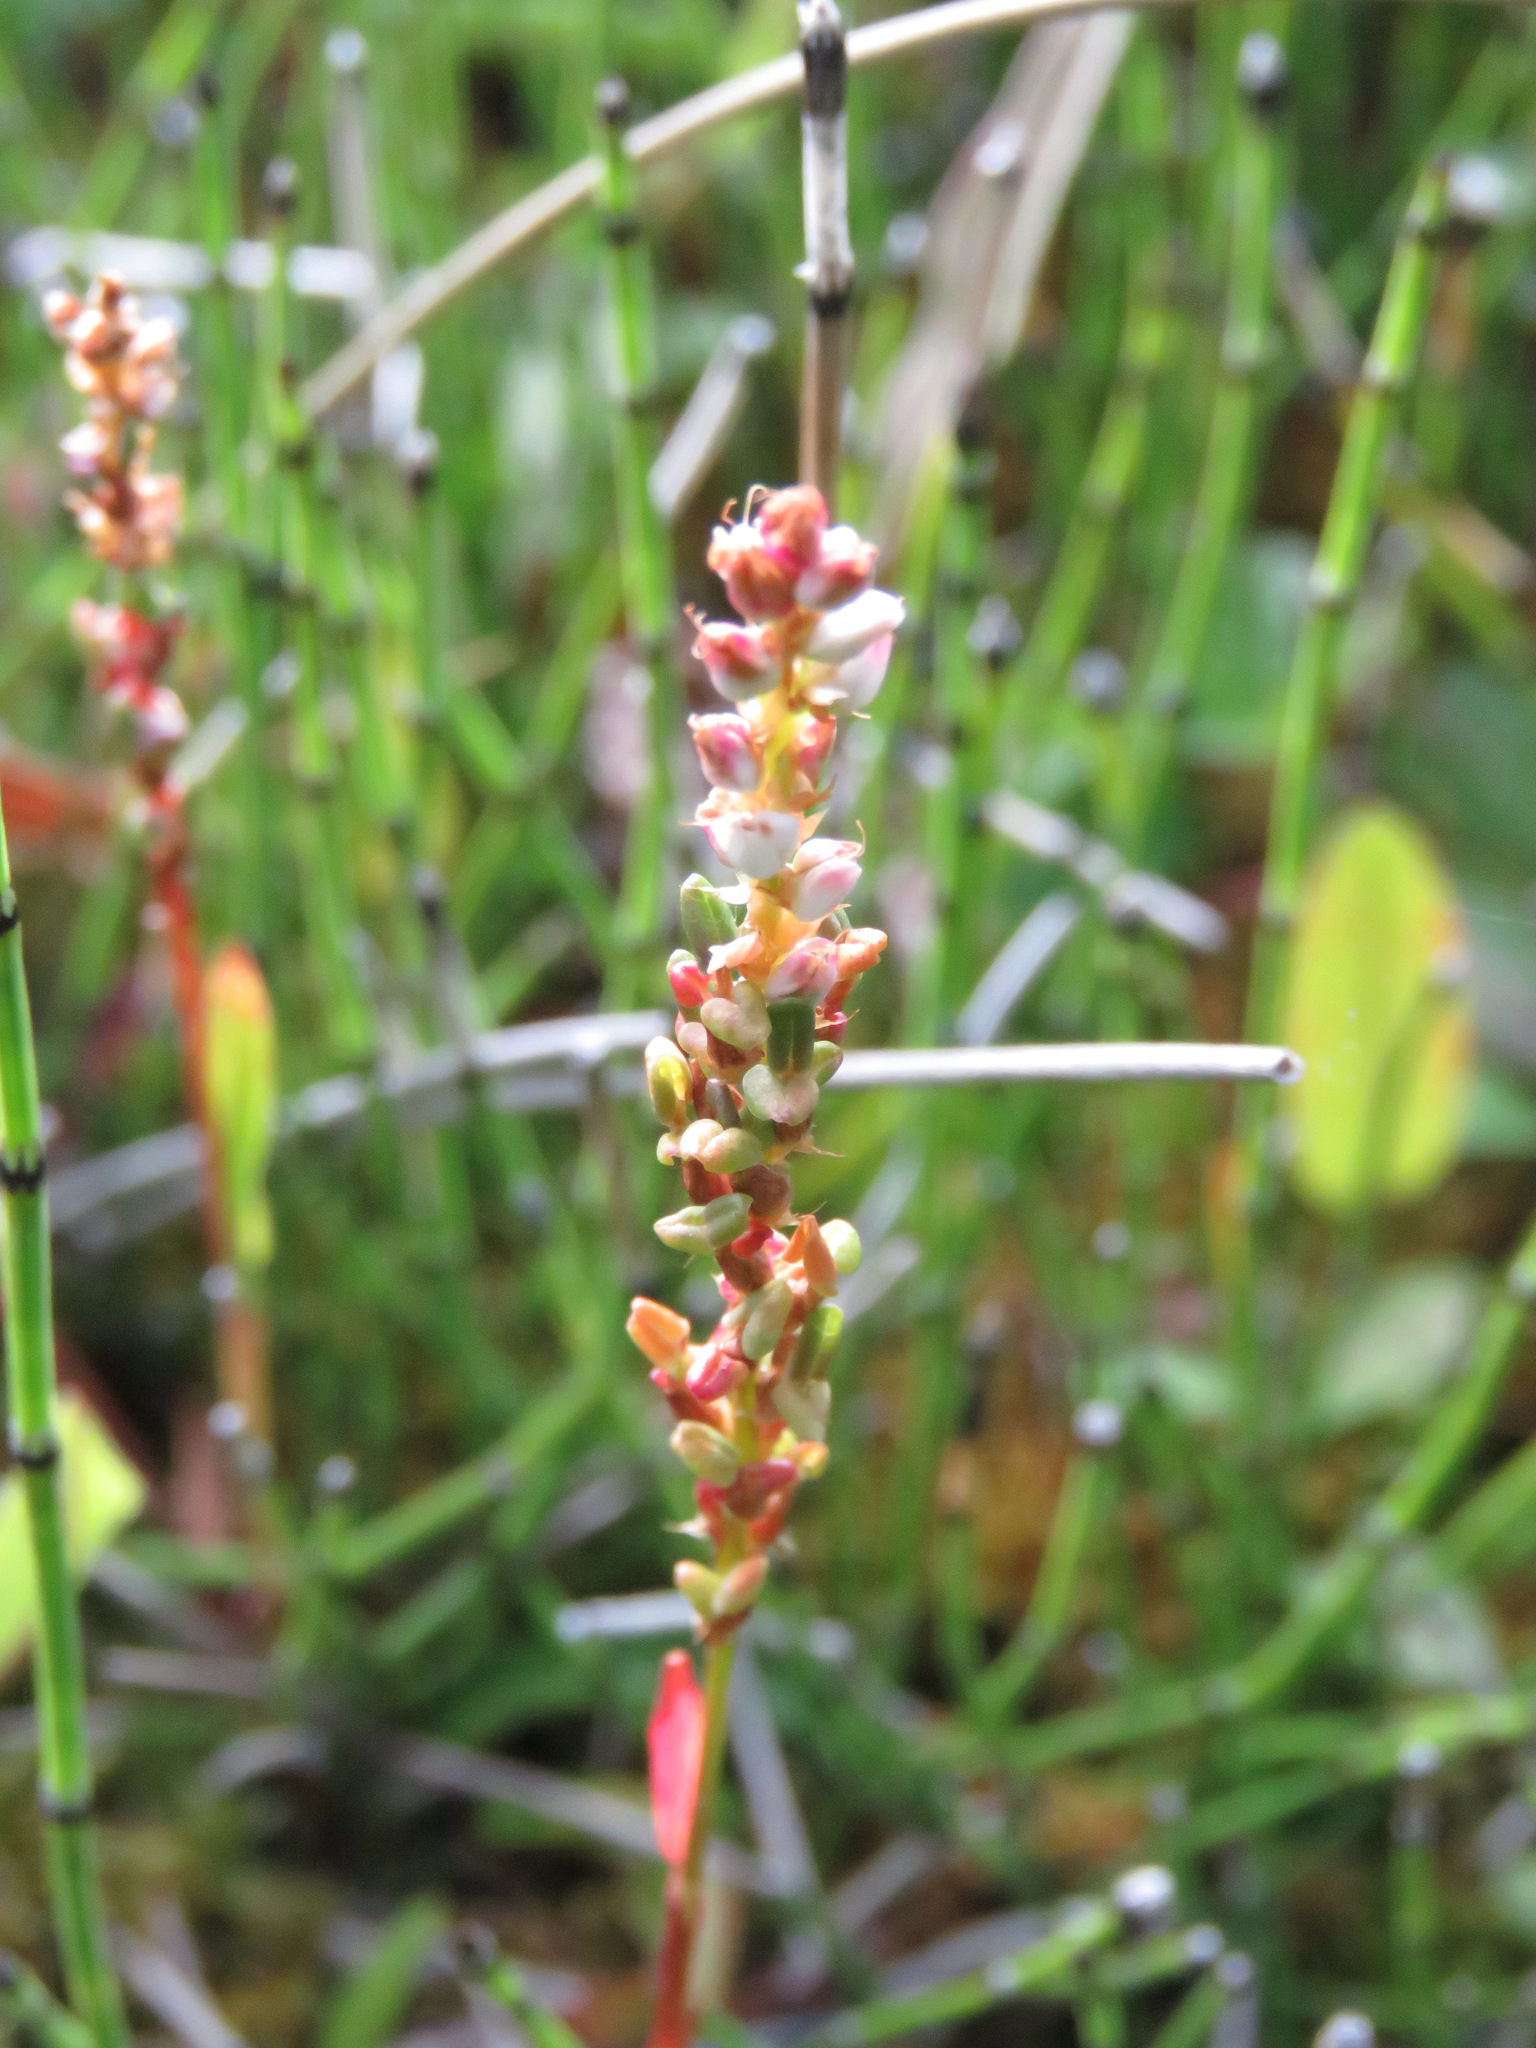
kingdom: Plantae
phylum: Tracheophyta
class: Magnoliopsida
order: Caryophyllales
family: Polygonaceae
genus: Bistorta
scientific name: Bistorta vivipara
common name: Alpine bistort
